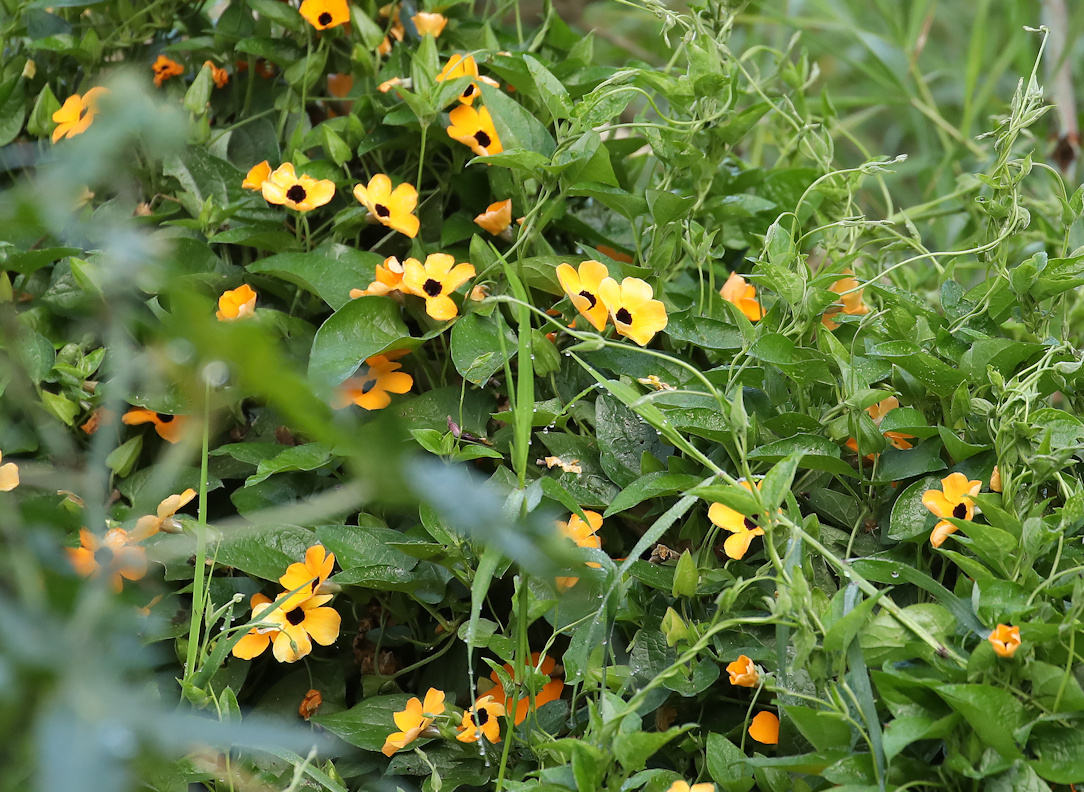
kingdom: Plantae
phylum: Tracheophyta
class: Magnoliopsida
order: Lamiales
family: Acanthaceae
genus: Thunbergia
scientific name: Thunbergia alata
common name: Blackeyed susan vine
